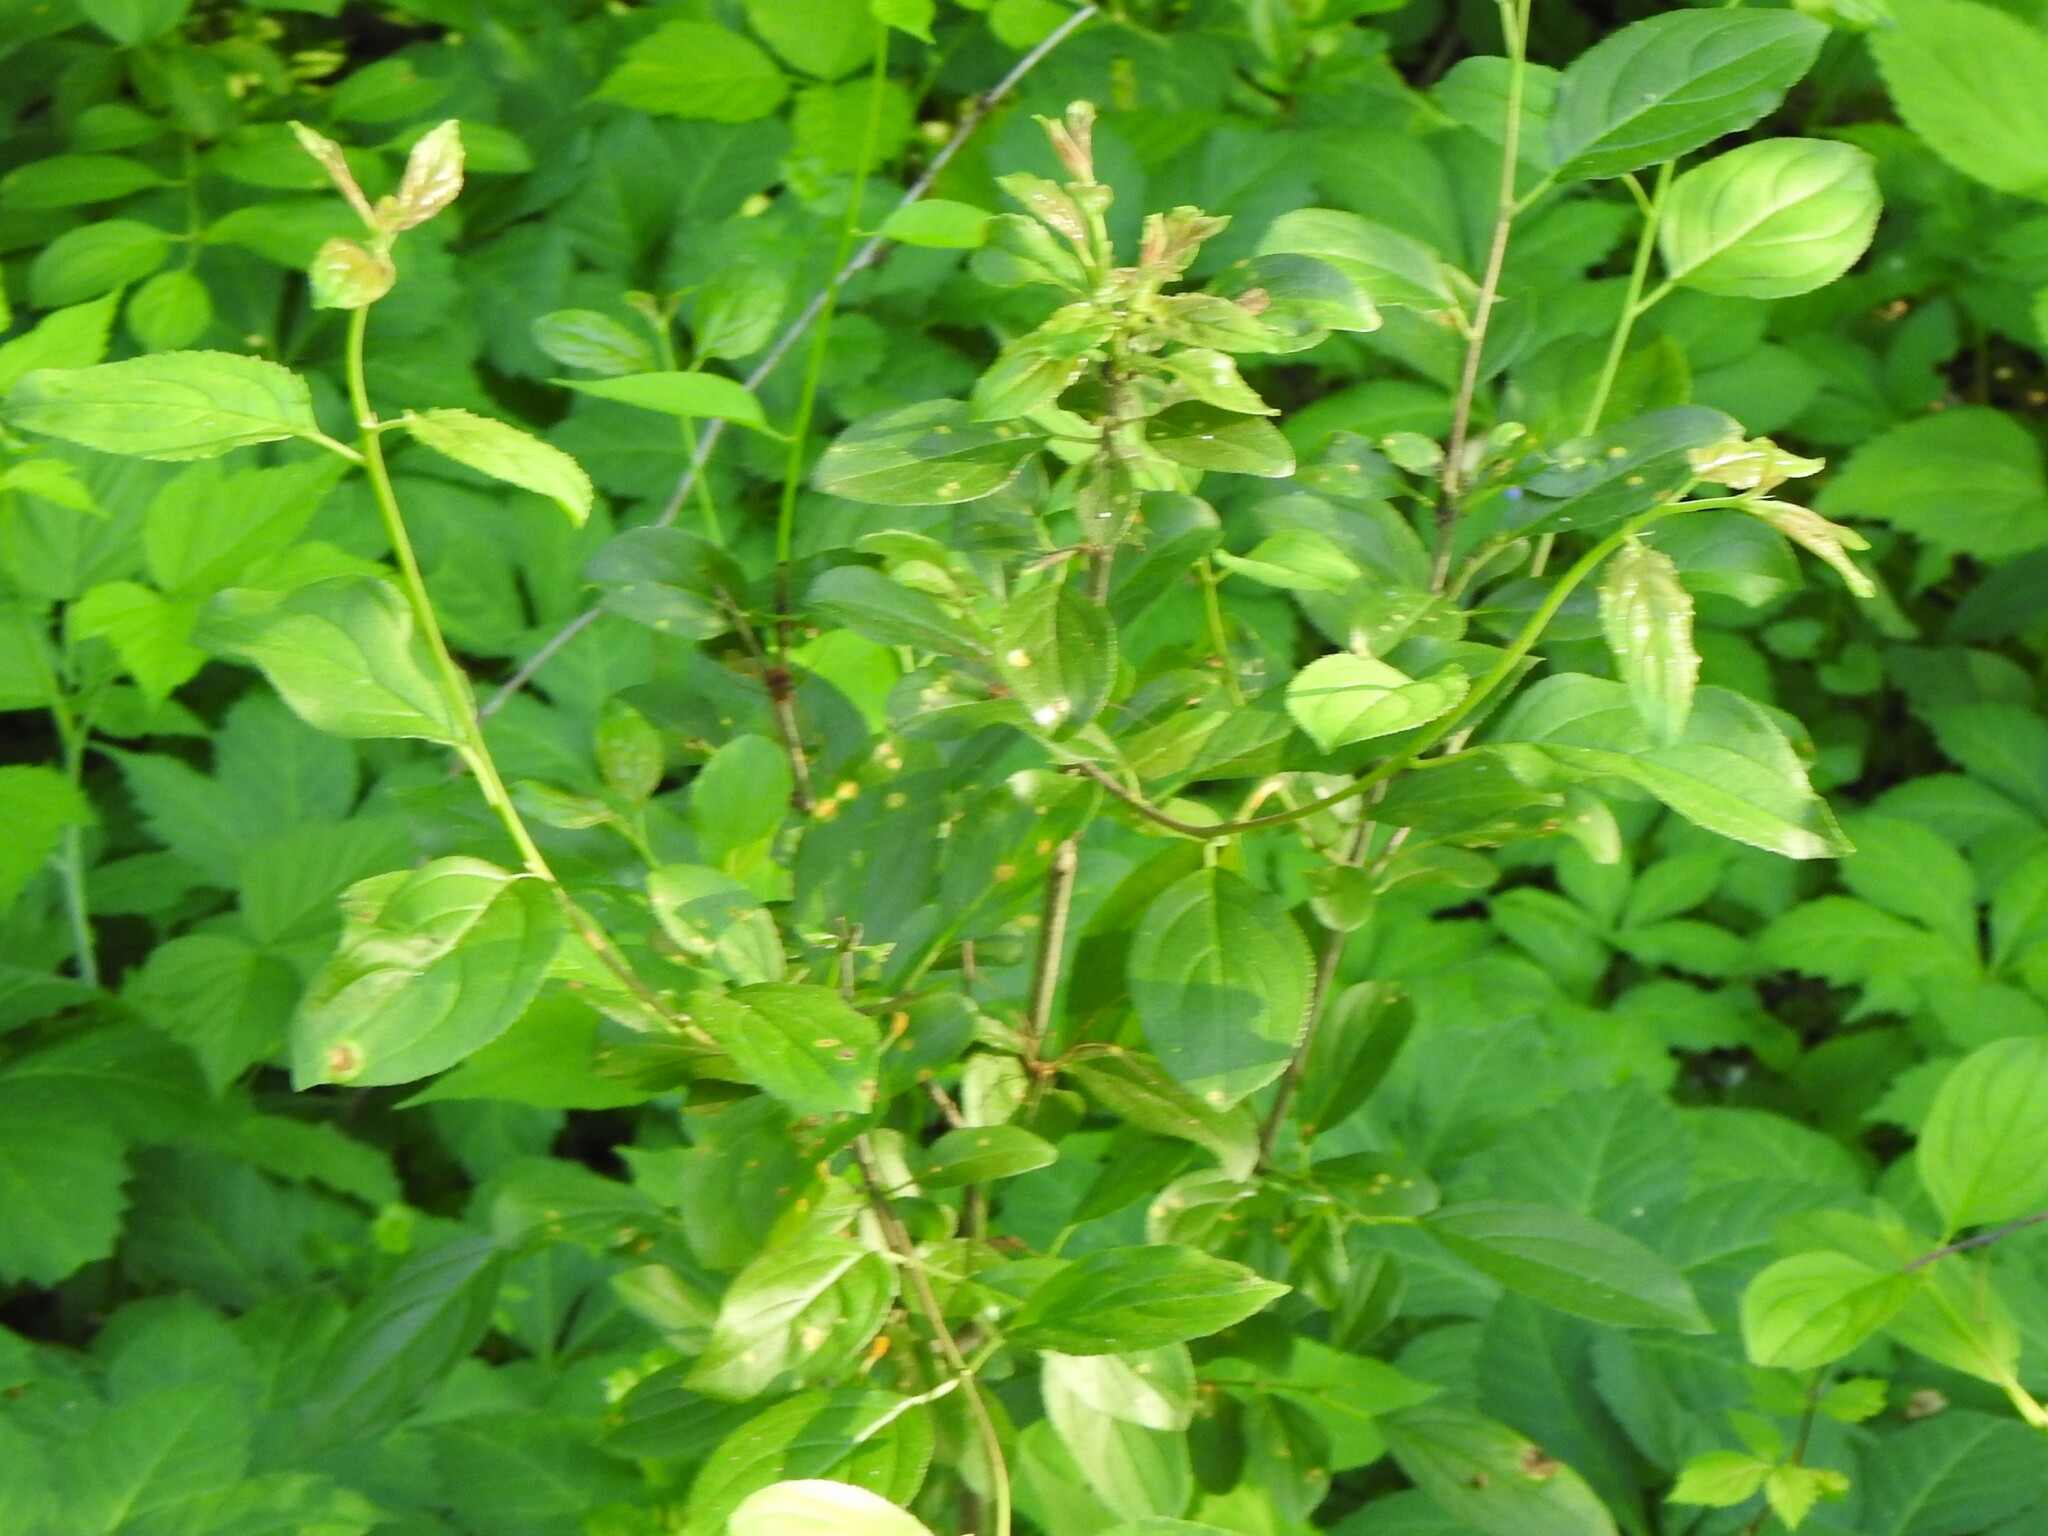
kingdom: Plantae
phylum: Tracheophyta
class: Magnoliopsida
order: Rosales
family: Rhamnaceae
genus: Rhamnus
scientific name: Rhamnus cathartica
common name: Common buckthorn
